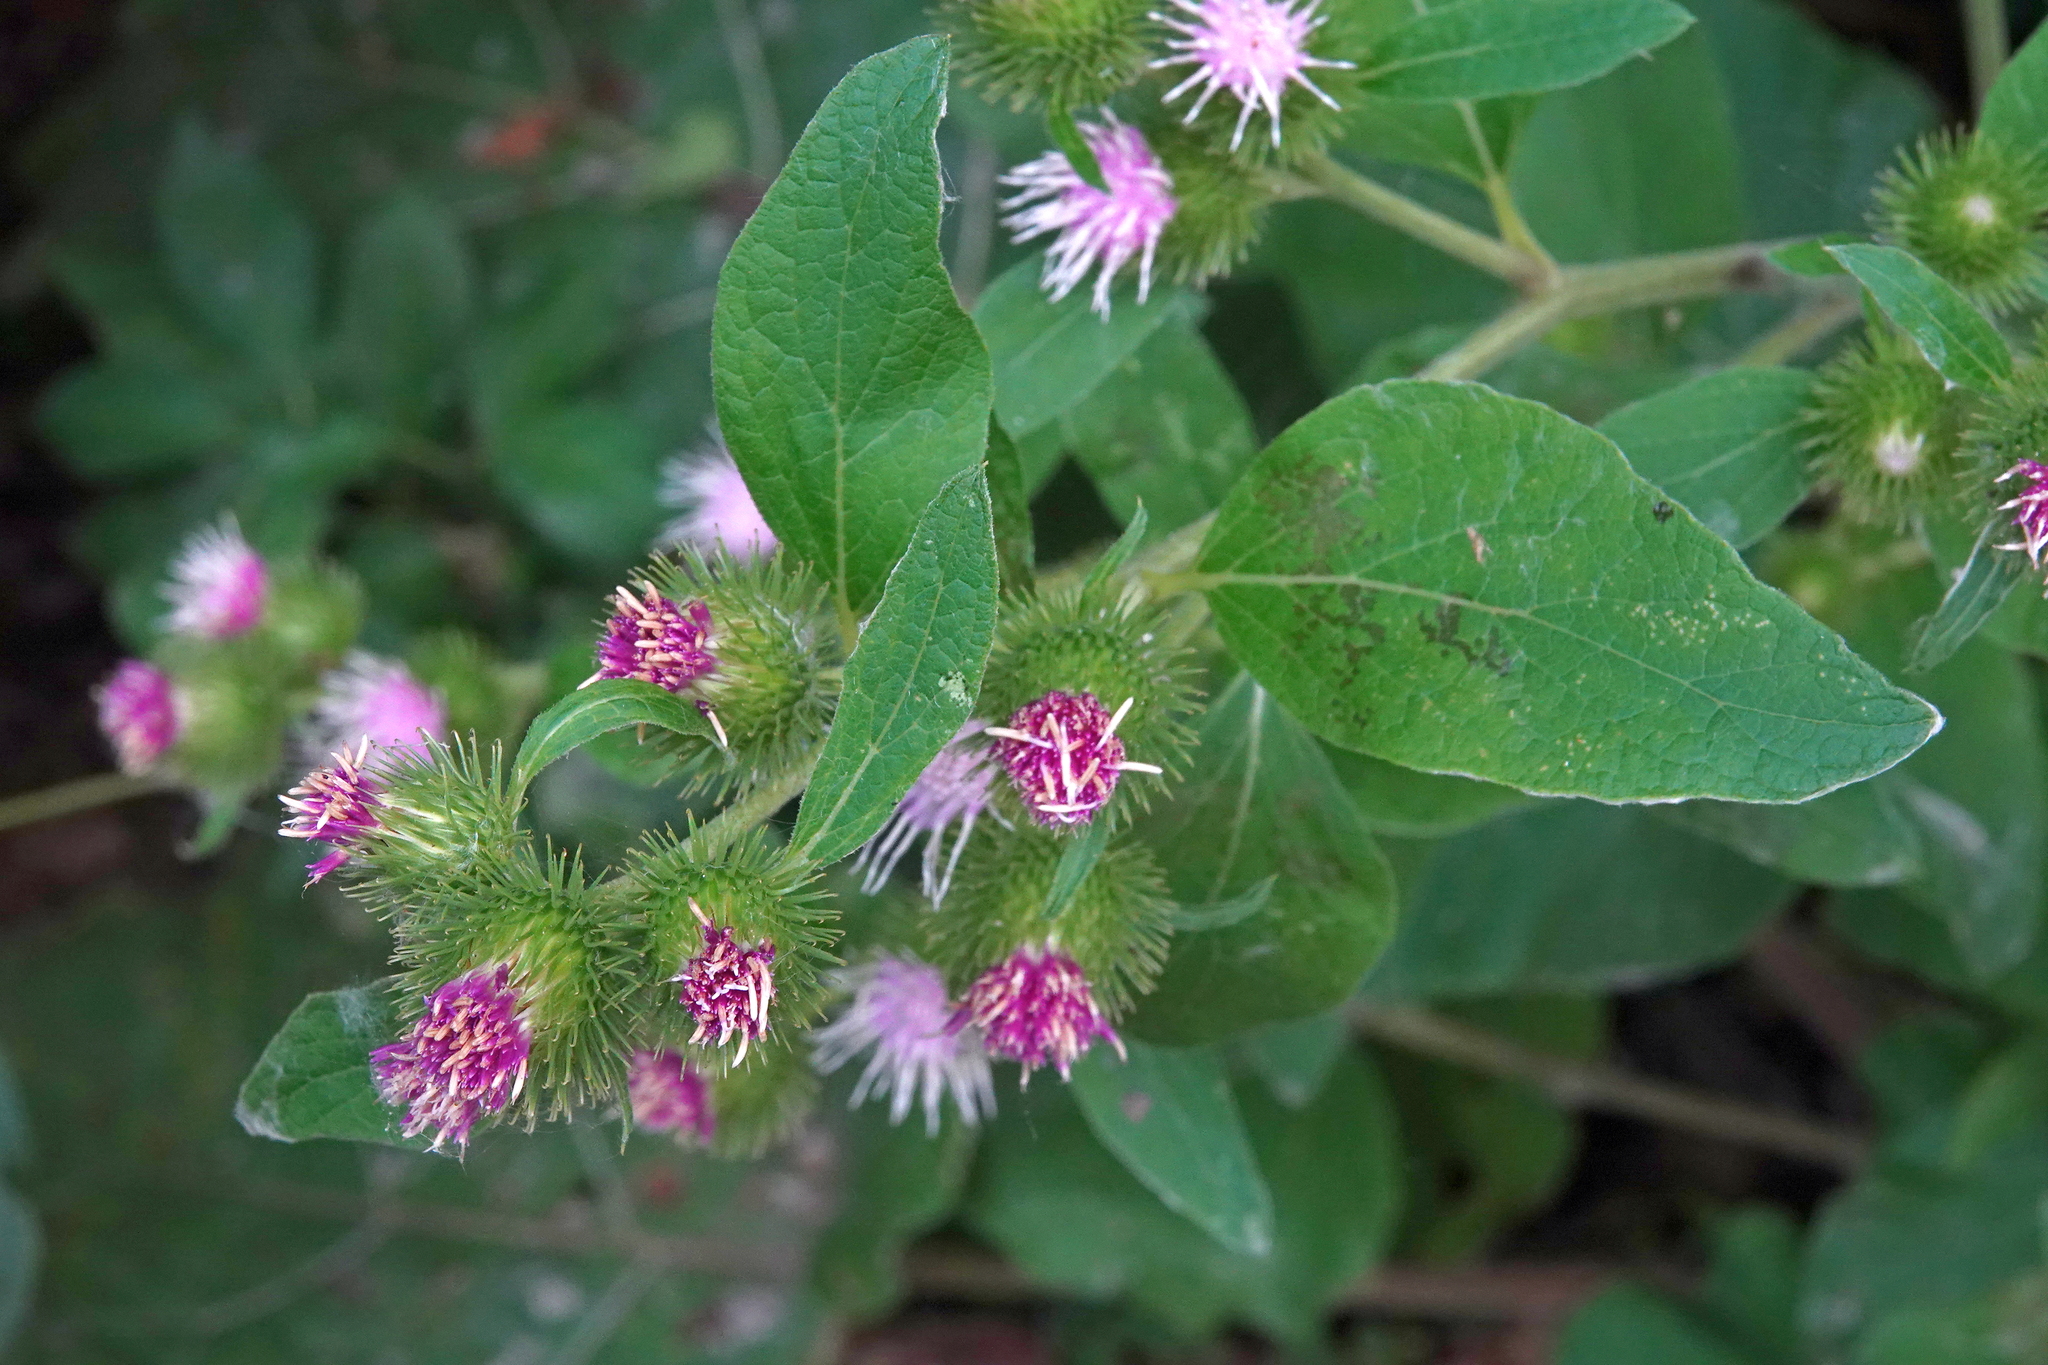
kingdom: Plantae
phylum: Tracheophyta
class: Magnoliopsida
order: Asterales
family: Asteraceae
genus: Arctium
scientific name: Arctium minus
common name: Lesser burdock
